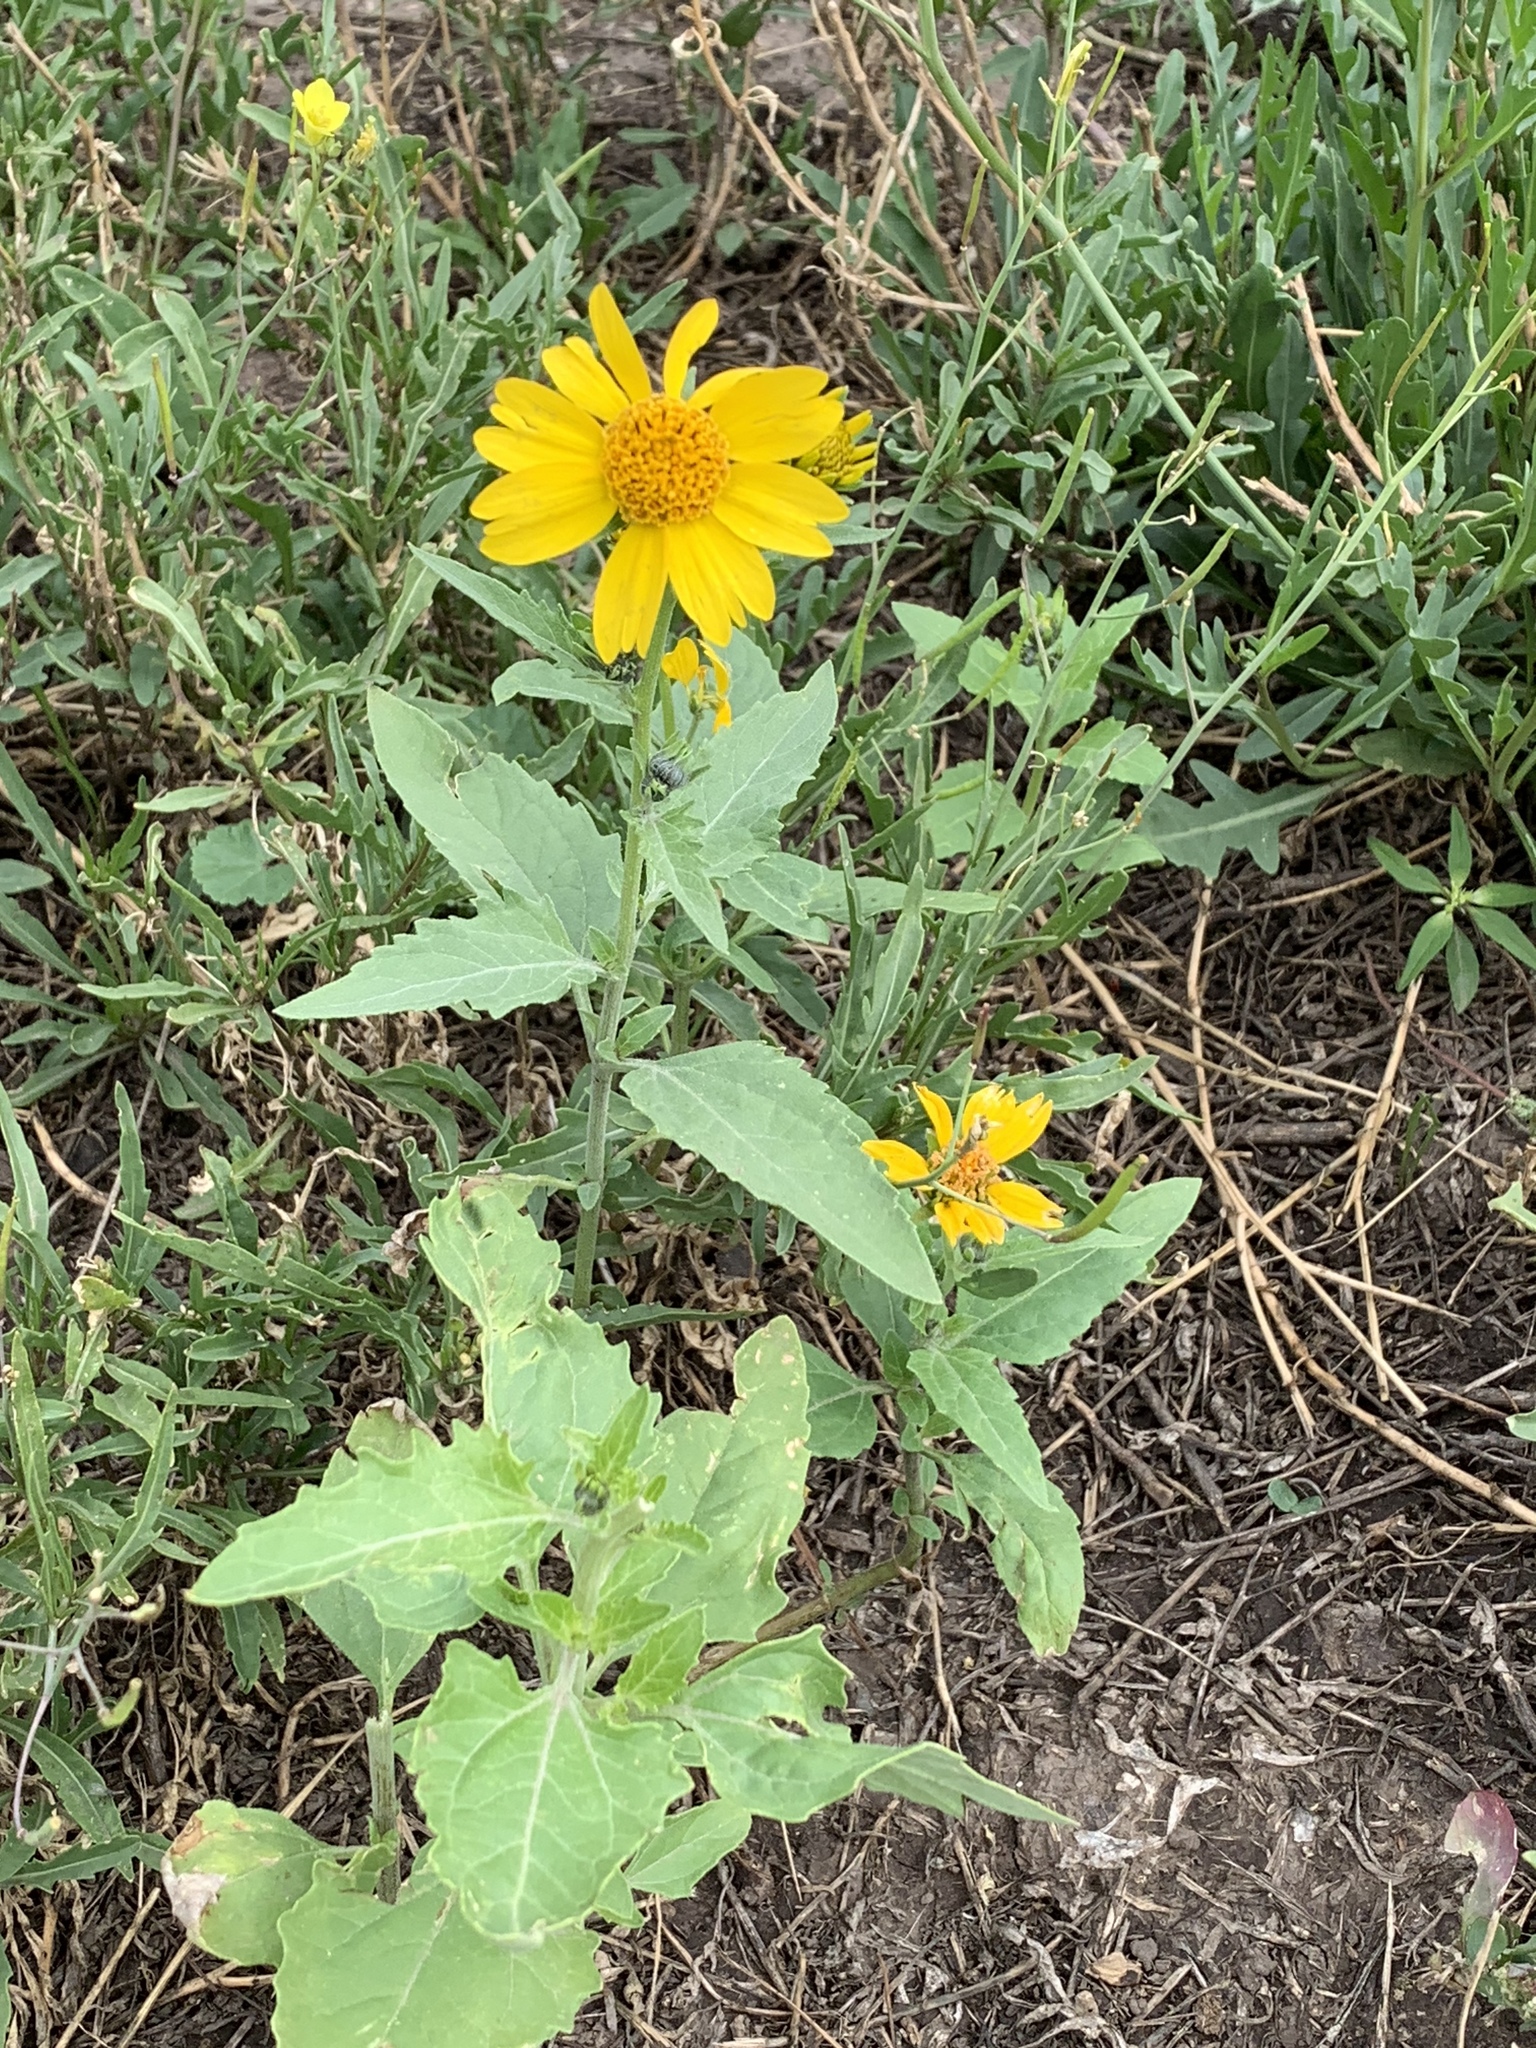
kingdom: Plantae
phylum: Tracheophyta
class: Magnoliopsida
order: Asterales
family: Asteraceae
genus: Verbesina
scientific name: Verbesina encelioides
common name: Golden crownbeard
